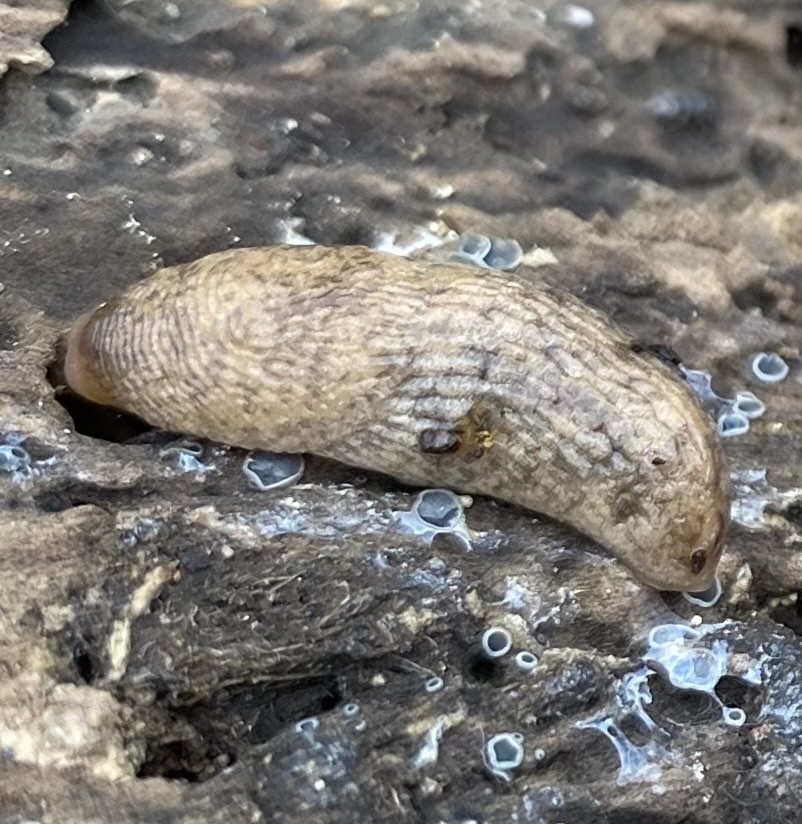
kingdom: Animalia
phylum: Mollusca
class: Gastropoda
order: Stylommatophora
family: Agriolimacidae
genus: Deroceras
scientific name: Deroceras reticulatum
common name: Gray field slug
